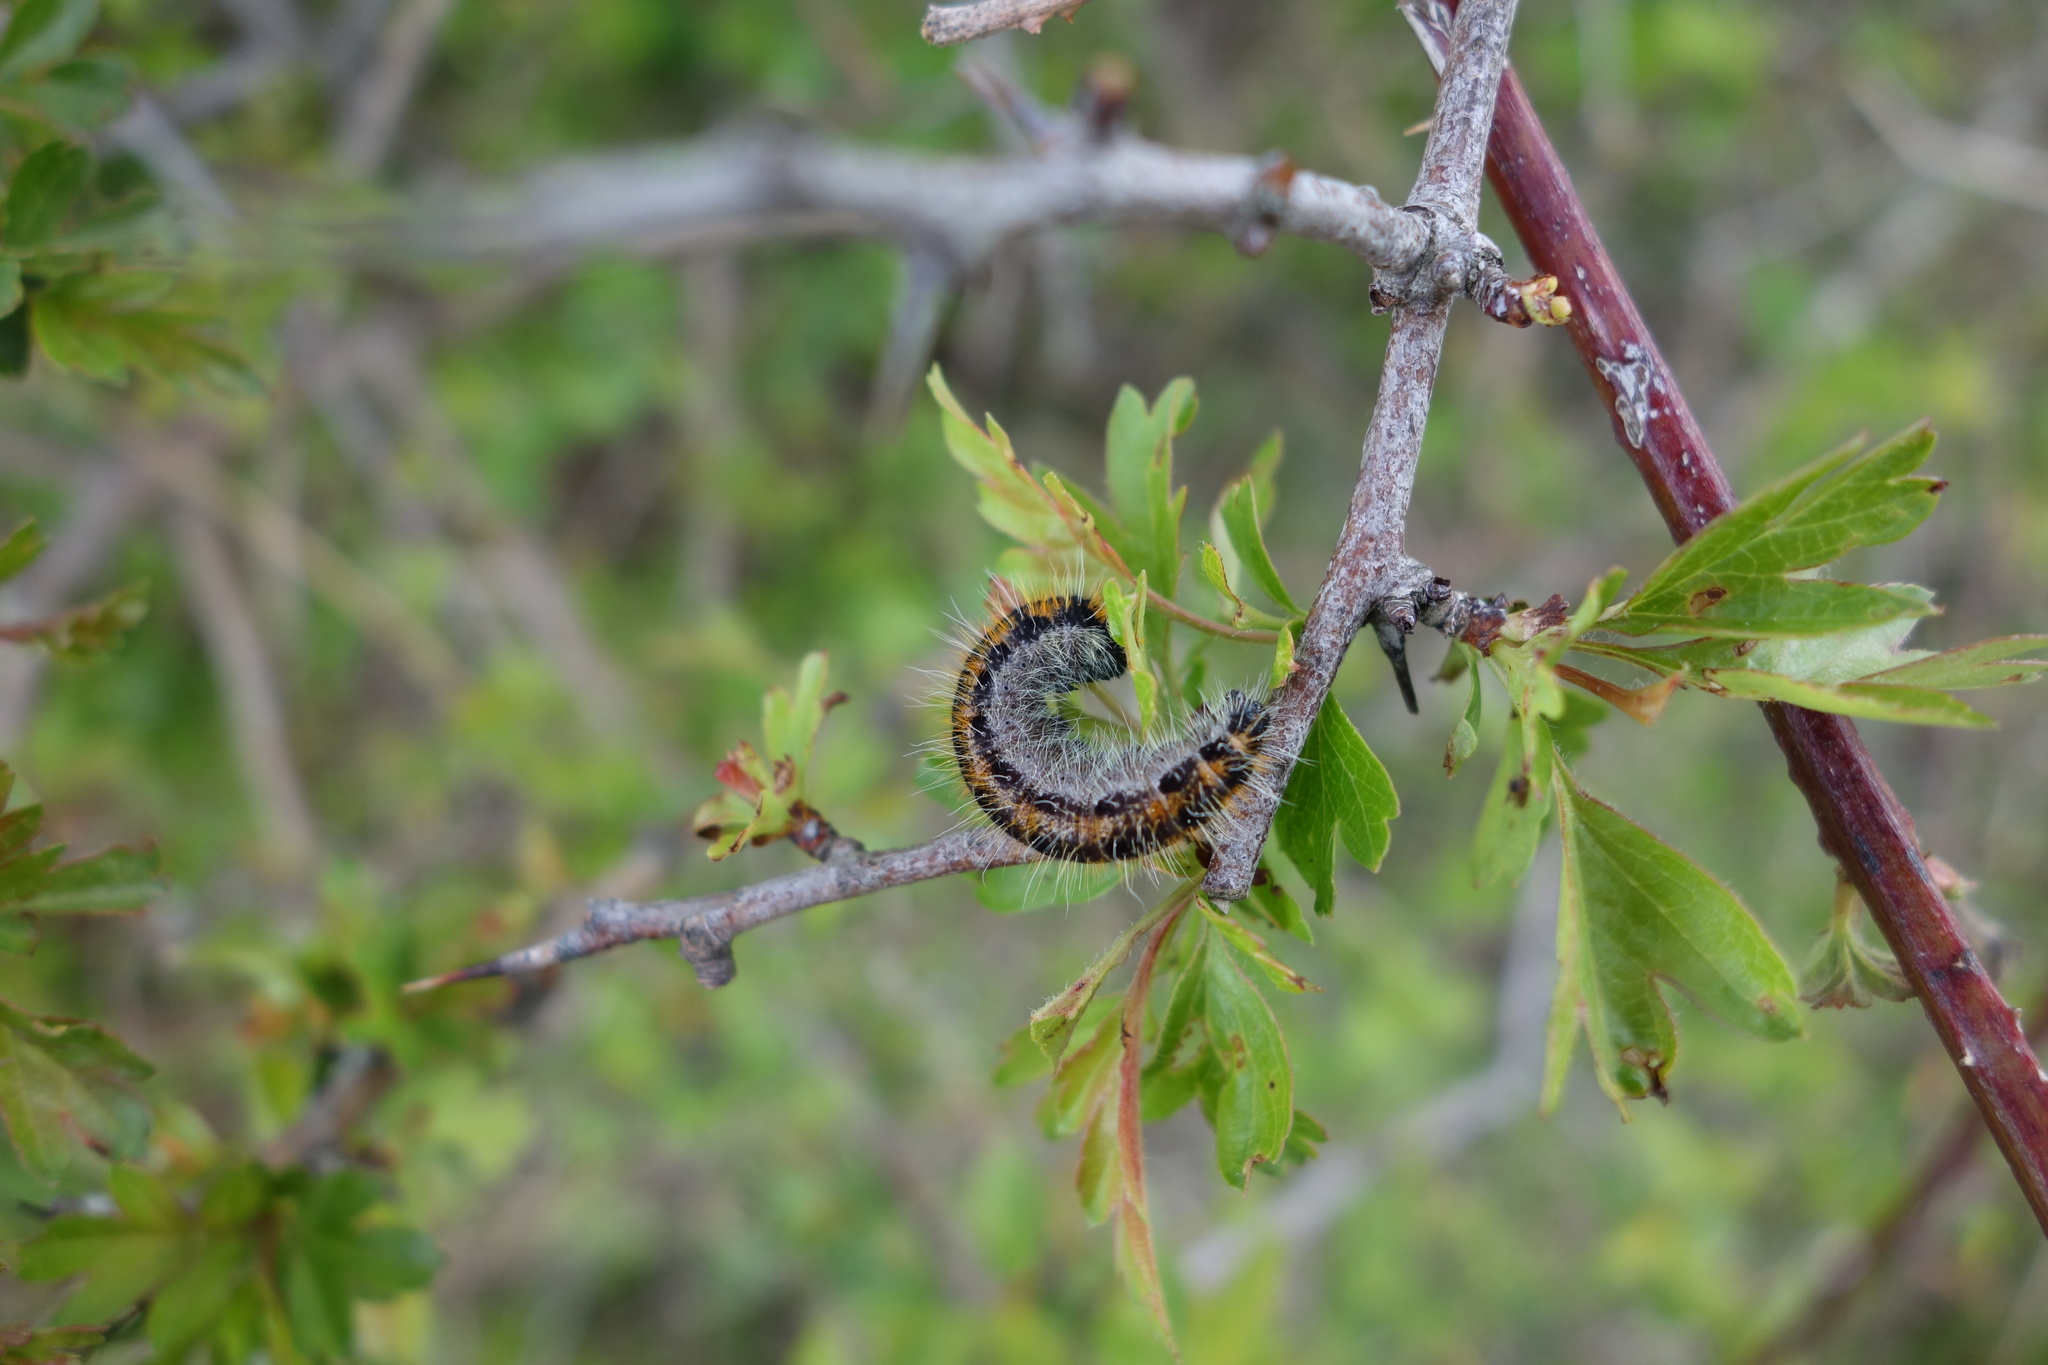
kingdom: Animalia
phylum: Arthropoda
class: Insecta
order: Lepidoptera
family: Pieridae
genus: Aporia
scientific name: Aporia crataegi
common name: Black-veined white
